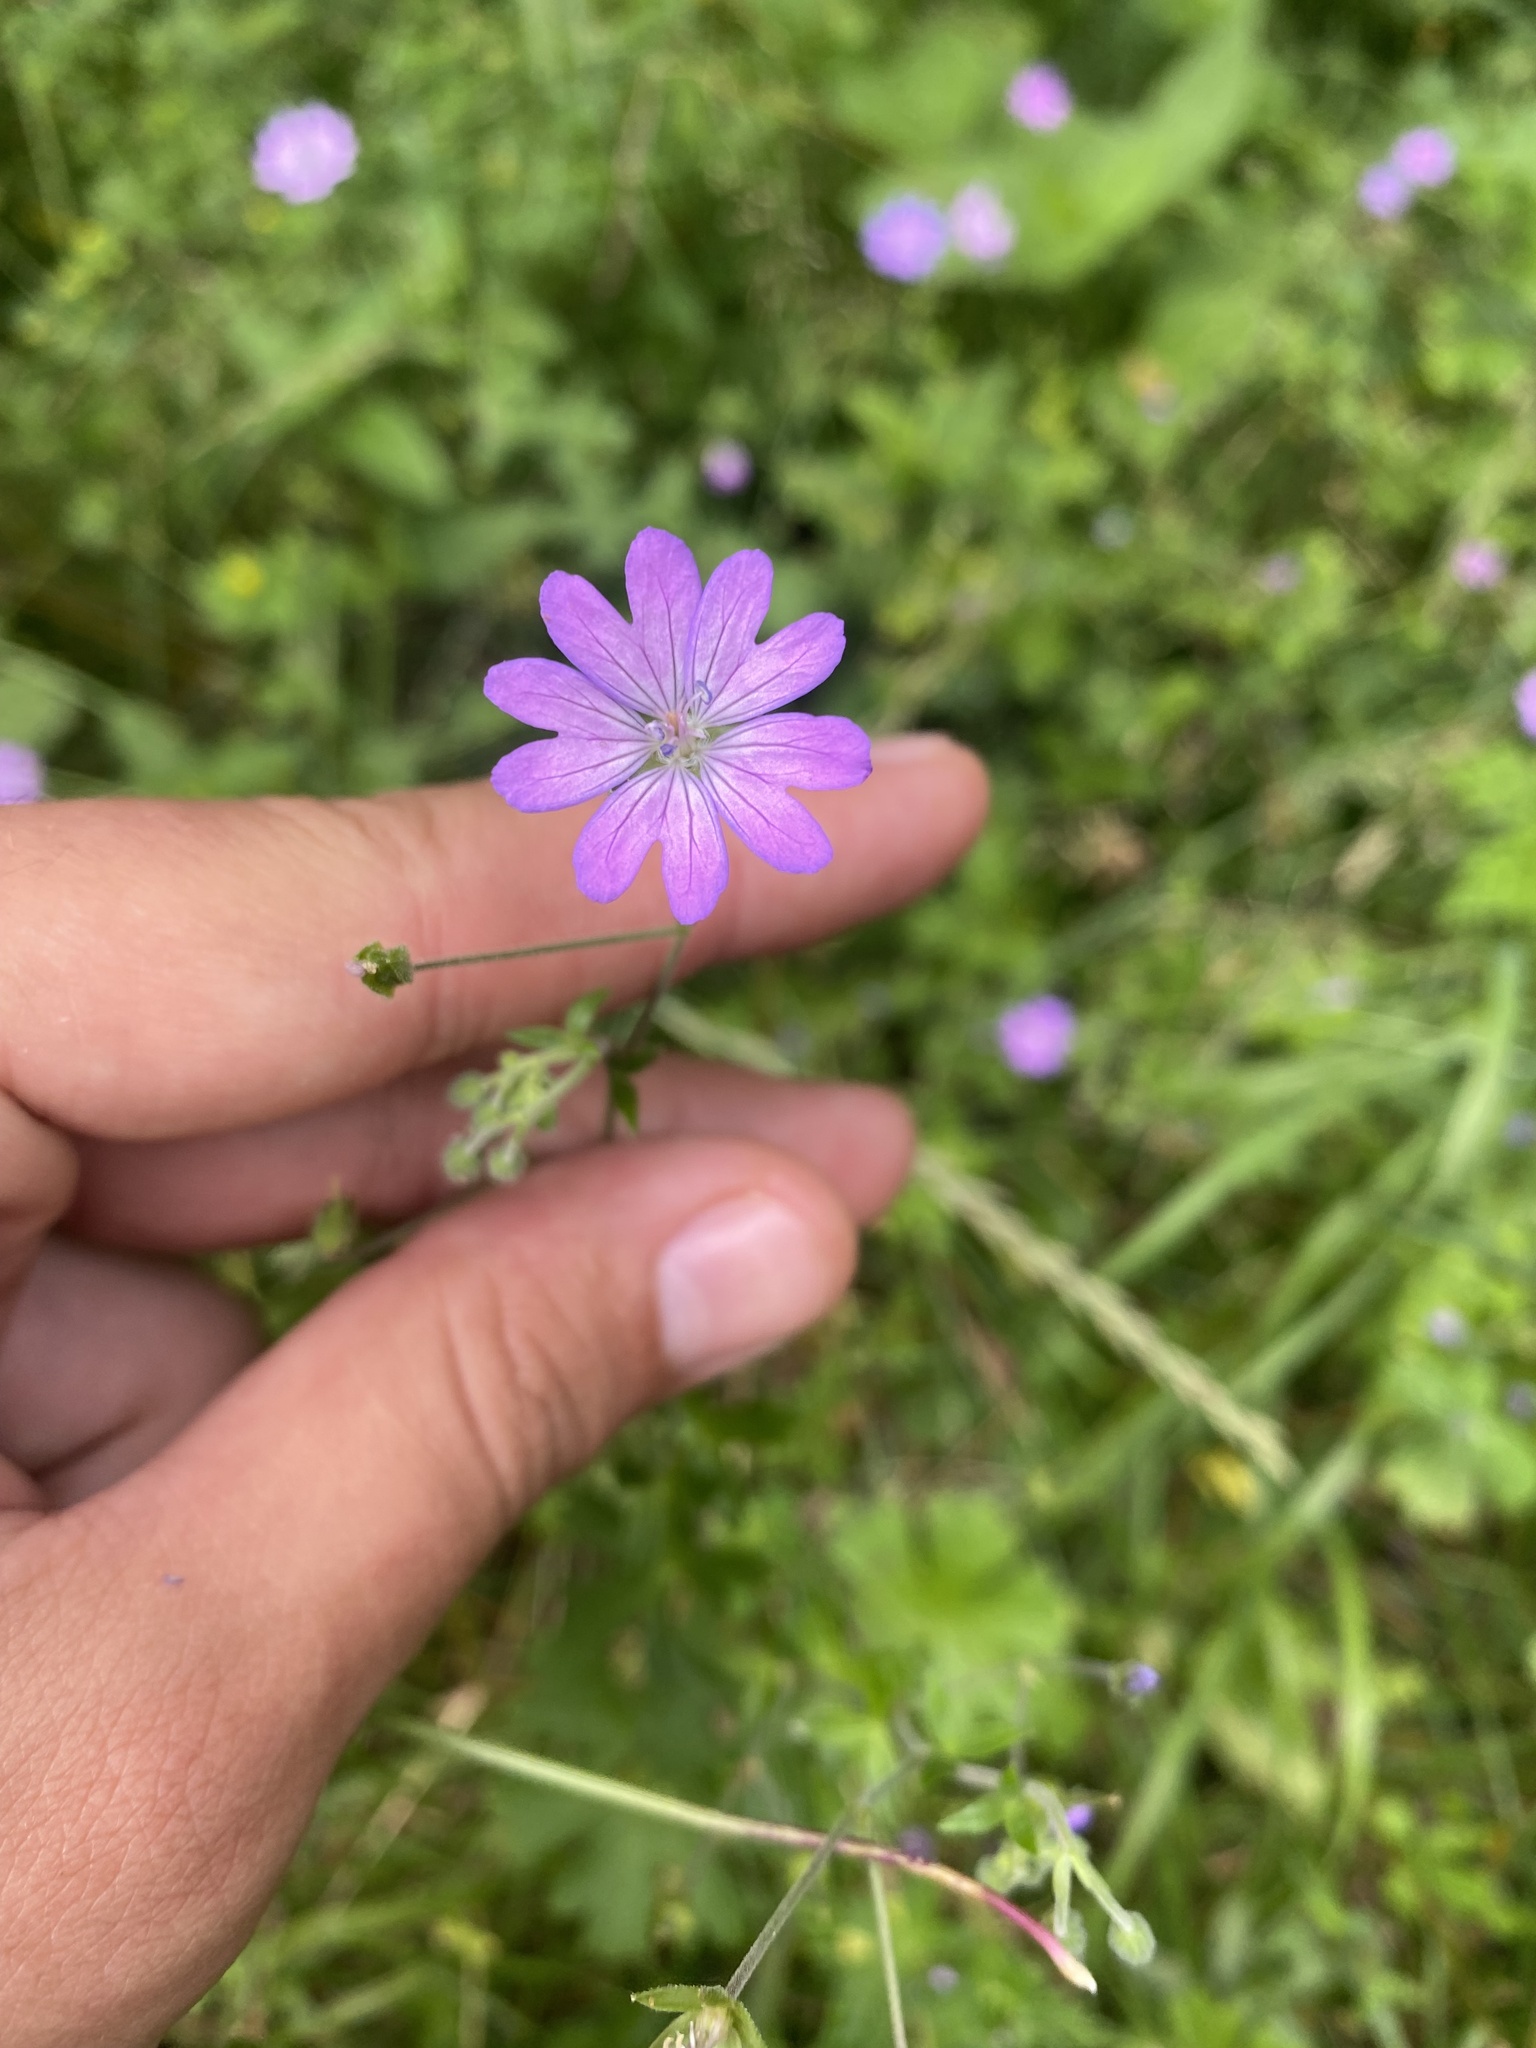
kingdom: Plantae
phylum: Tracheophyta
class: Magnoliopsida
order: Geraniales
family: Geraniaceae
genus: Geranium
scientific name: Geranium pyrenaicum
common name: Hedgerow crane's-bill
